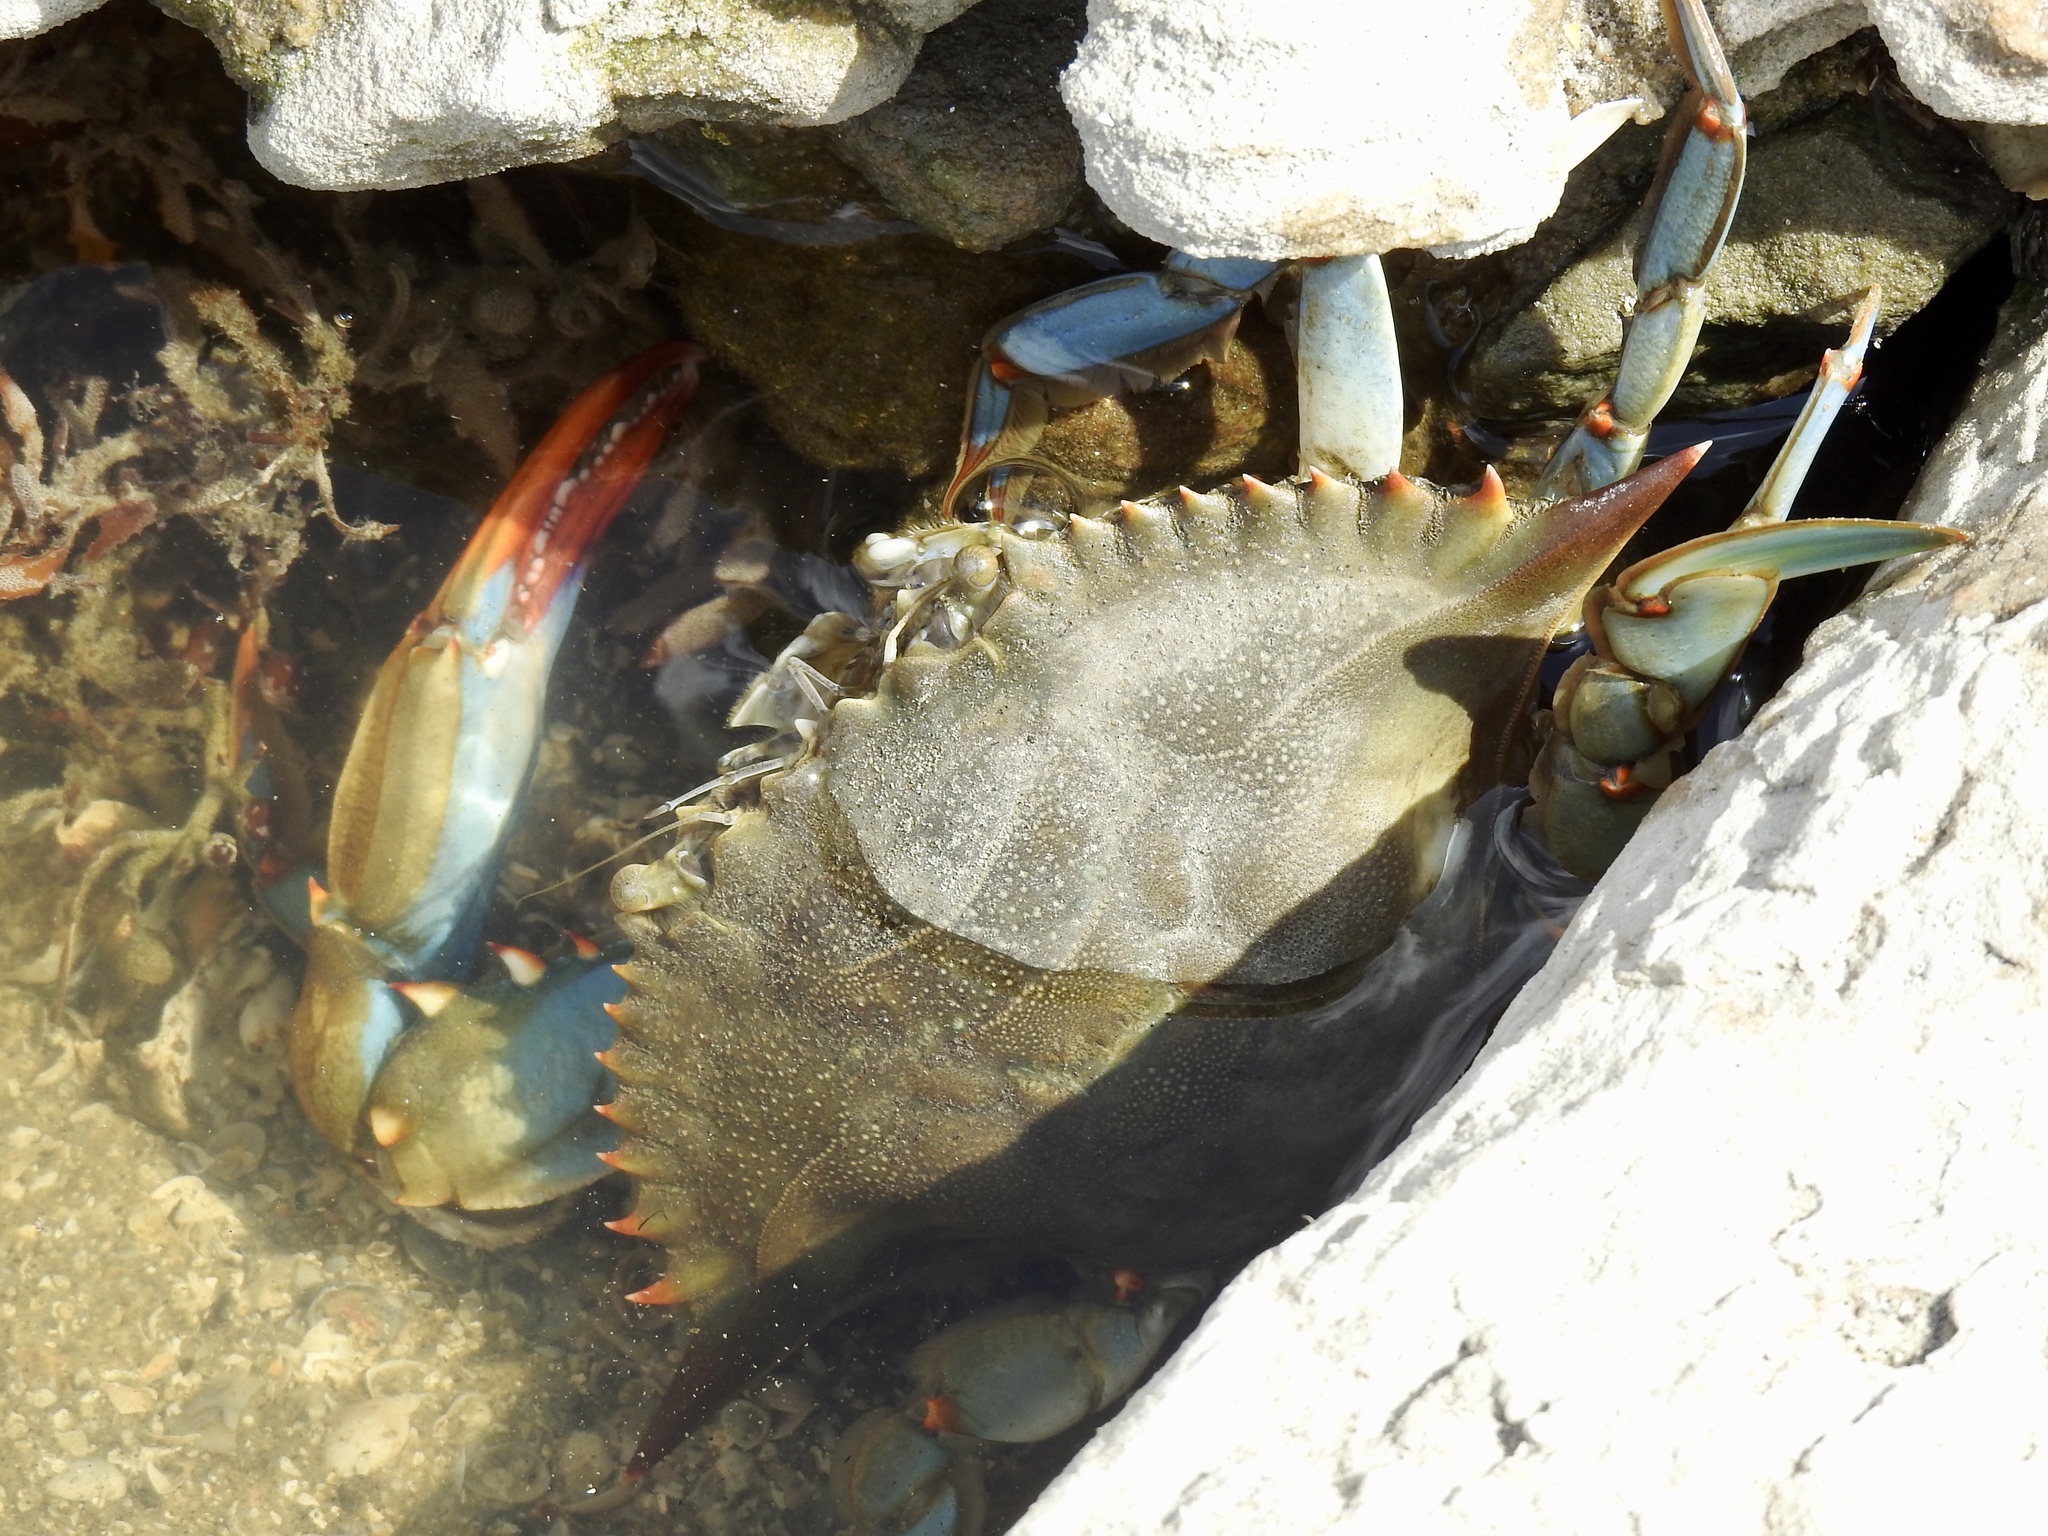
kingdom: Animalia
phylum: Arthropoda
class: Malacostraca
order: Decapoda
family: Portunidae
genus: Callinectes
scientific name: Callinectes sapidus
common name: Blue crab
